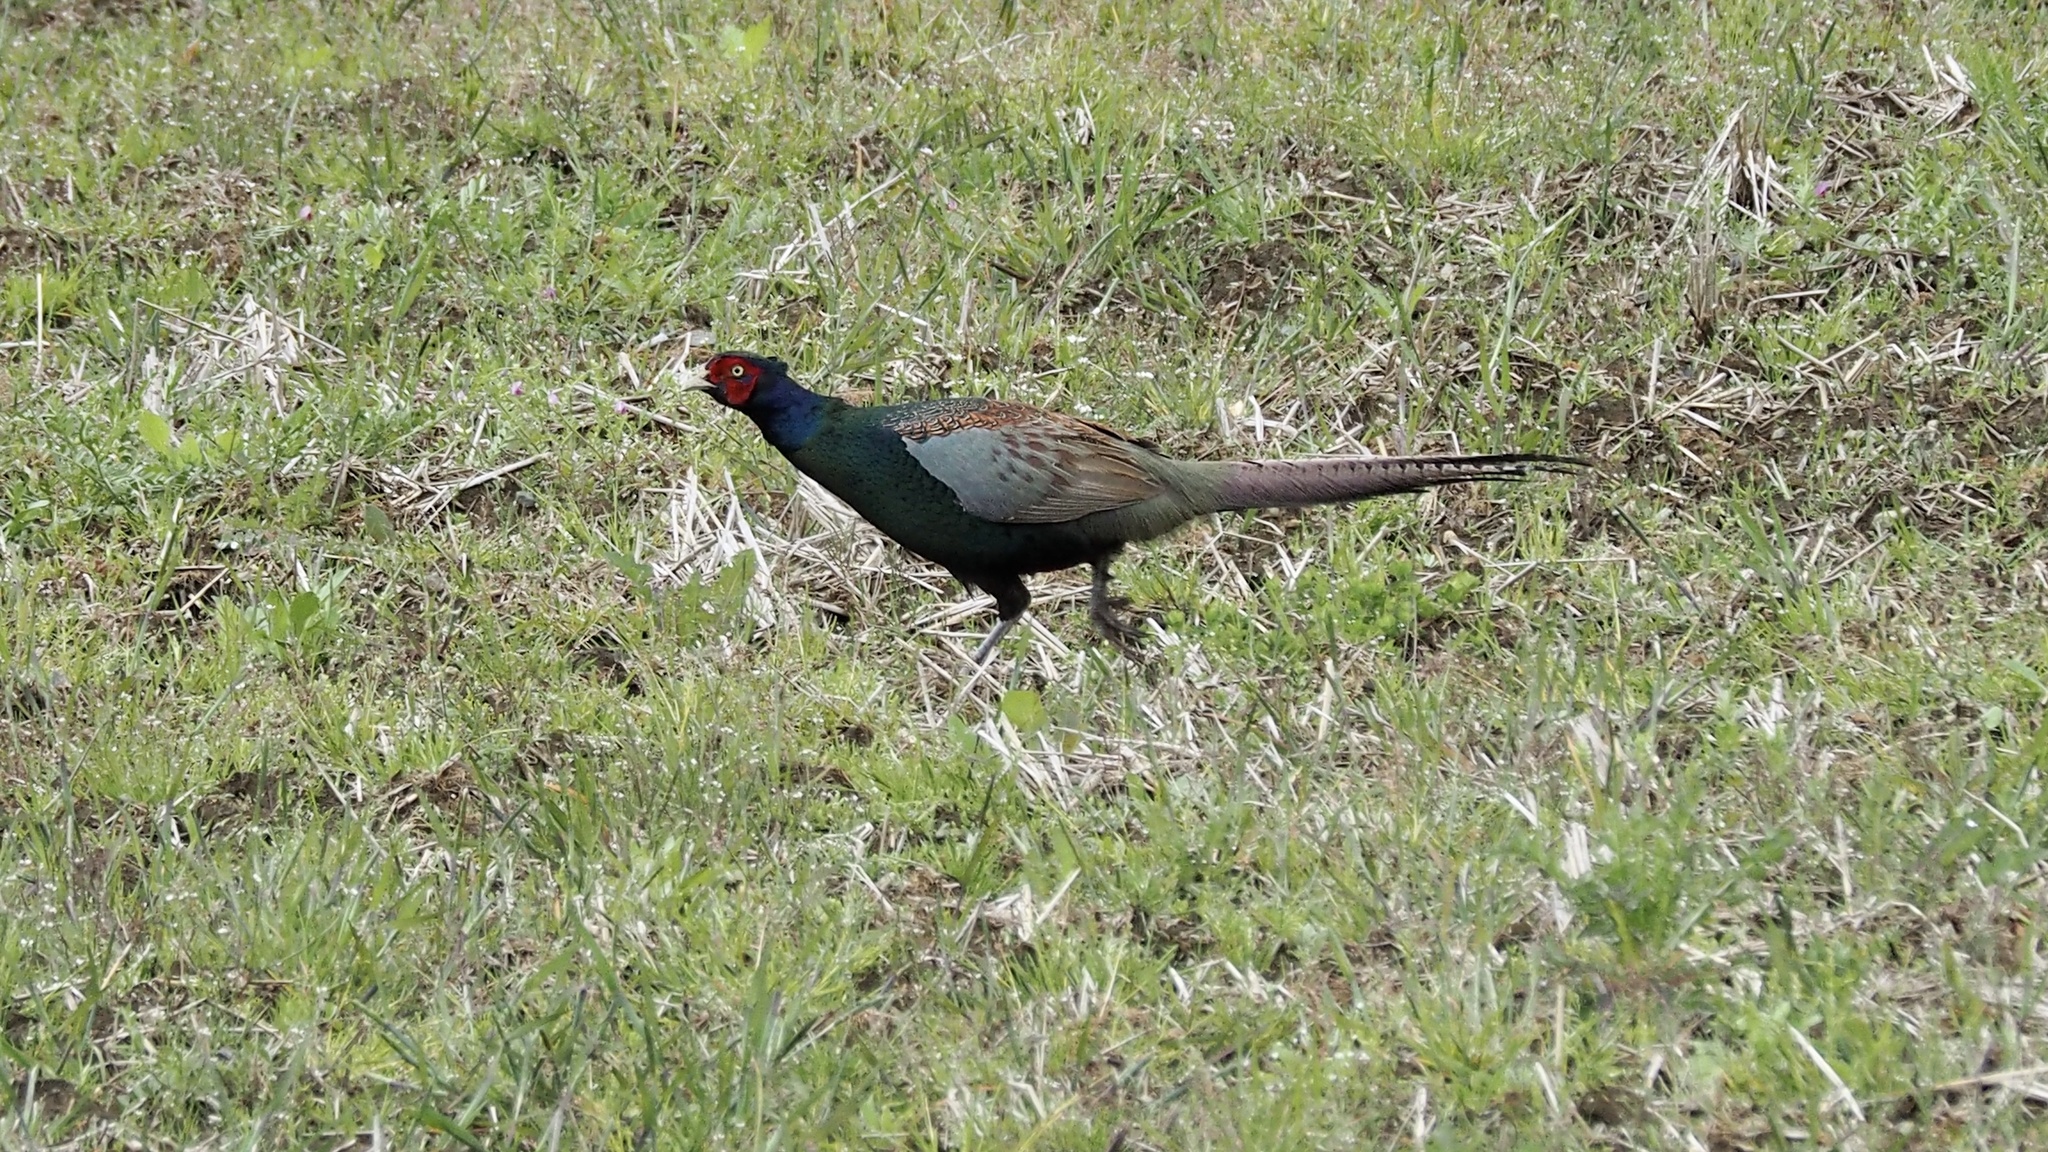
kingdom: Animalia
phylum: Chordata
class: Aves
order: Galliformes
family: Phasianidae
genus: Phasianus
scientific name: Phasianus versicolor
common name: Green pheasant
